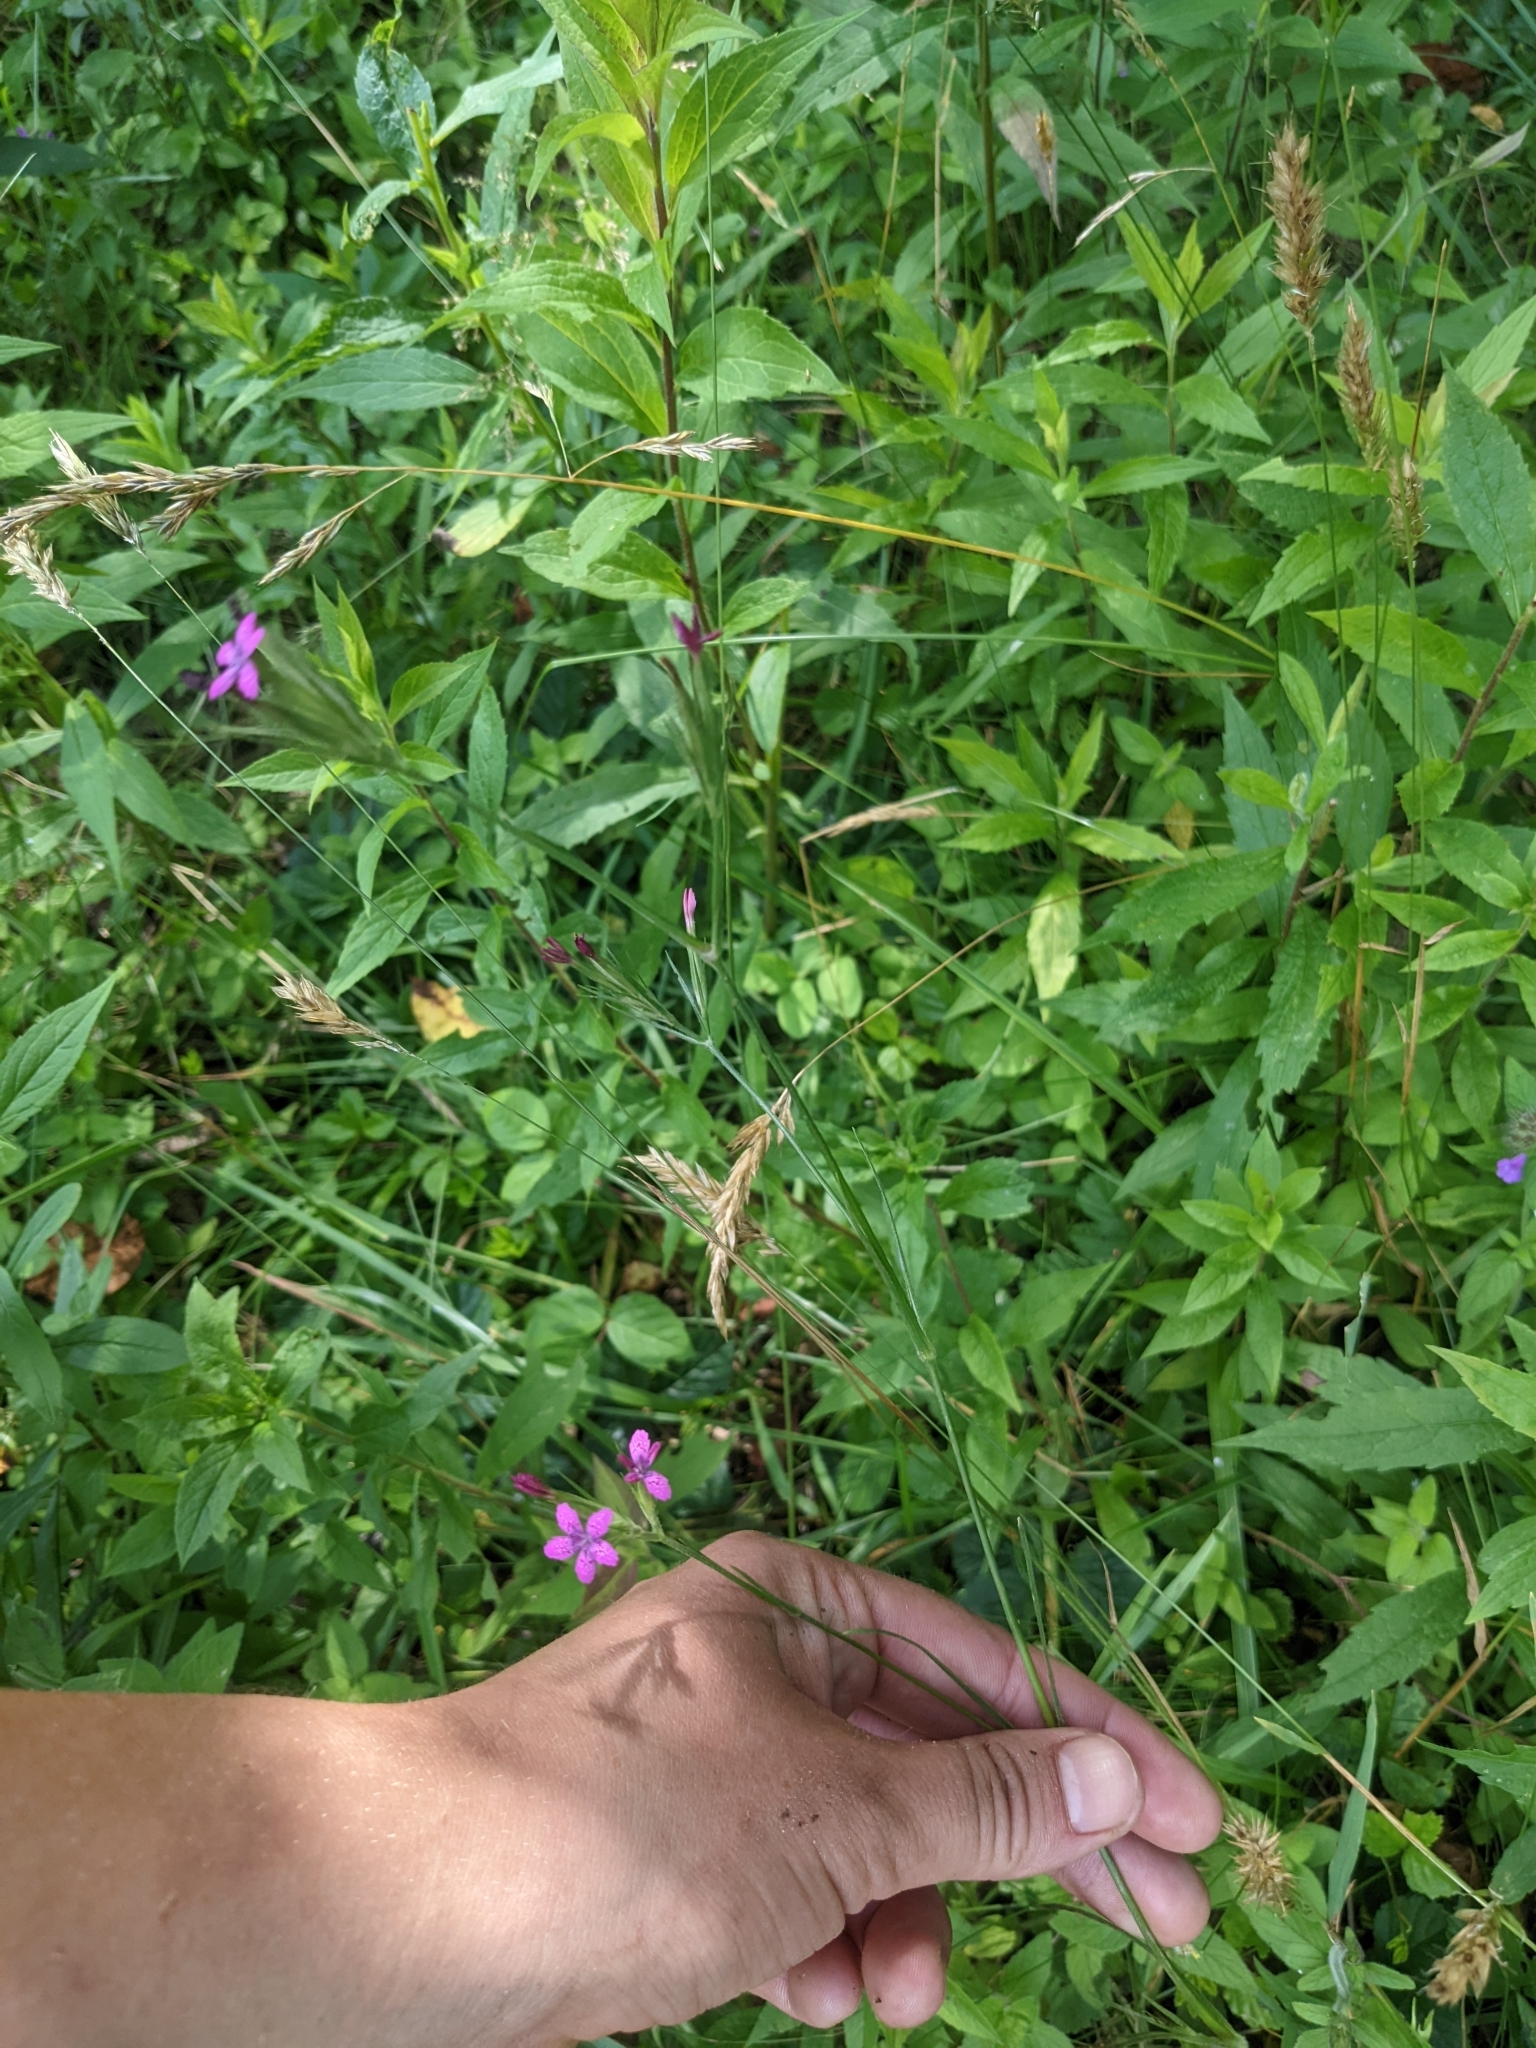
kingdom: Plantae
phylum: Tracheophyta
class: Magnoliopsida
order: Caryophyllales
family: Caryophyllaceae
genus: Dianthus
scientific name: Dianthus armeria
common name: Deptford pink
